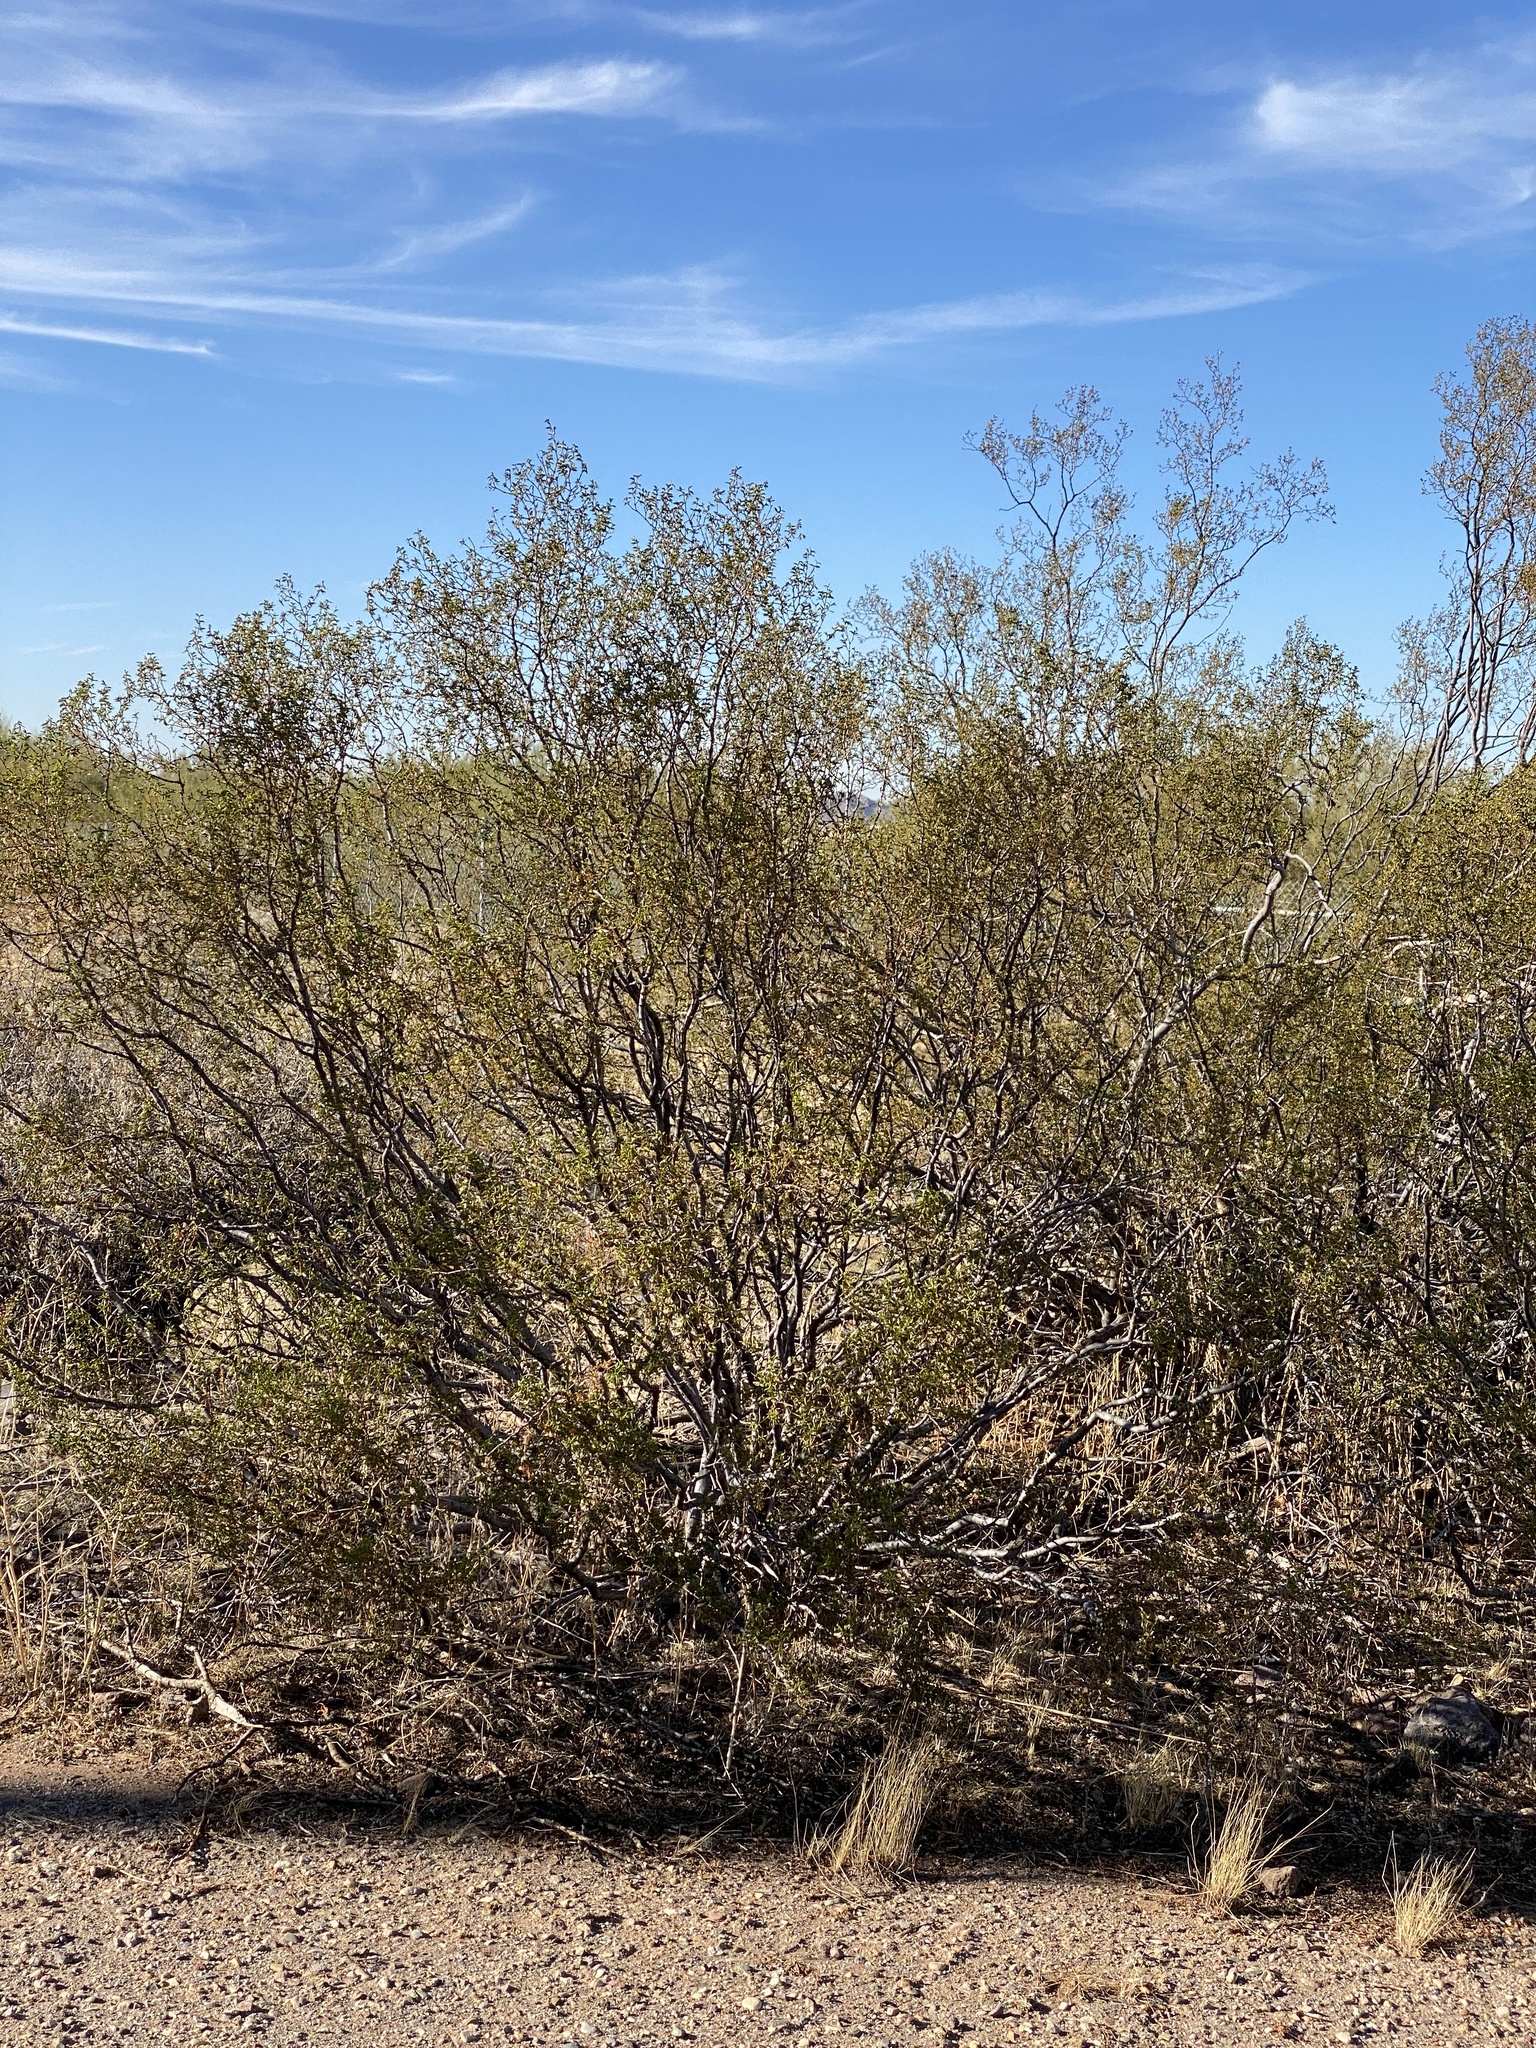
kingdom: Plantae
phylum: Tracheophyta
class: Magnoliopsida
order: Zygophyllales
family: Zygophyllaceae
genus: Larrea
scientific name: Larrea tridentata
